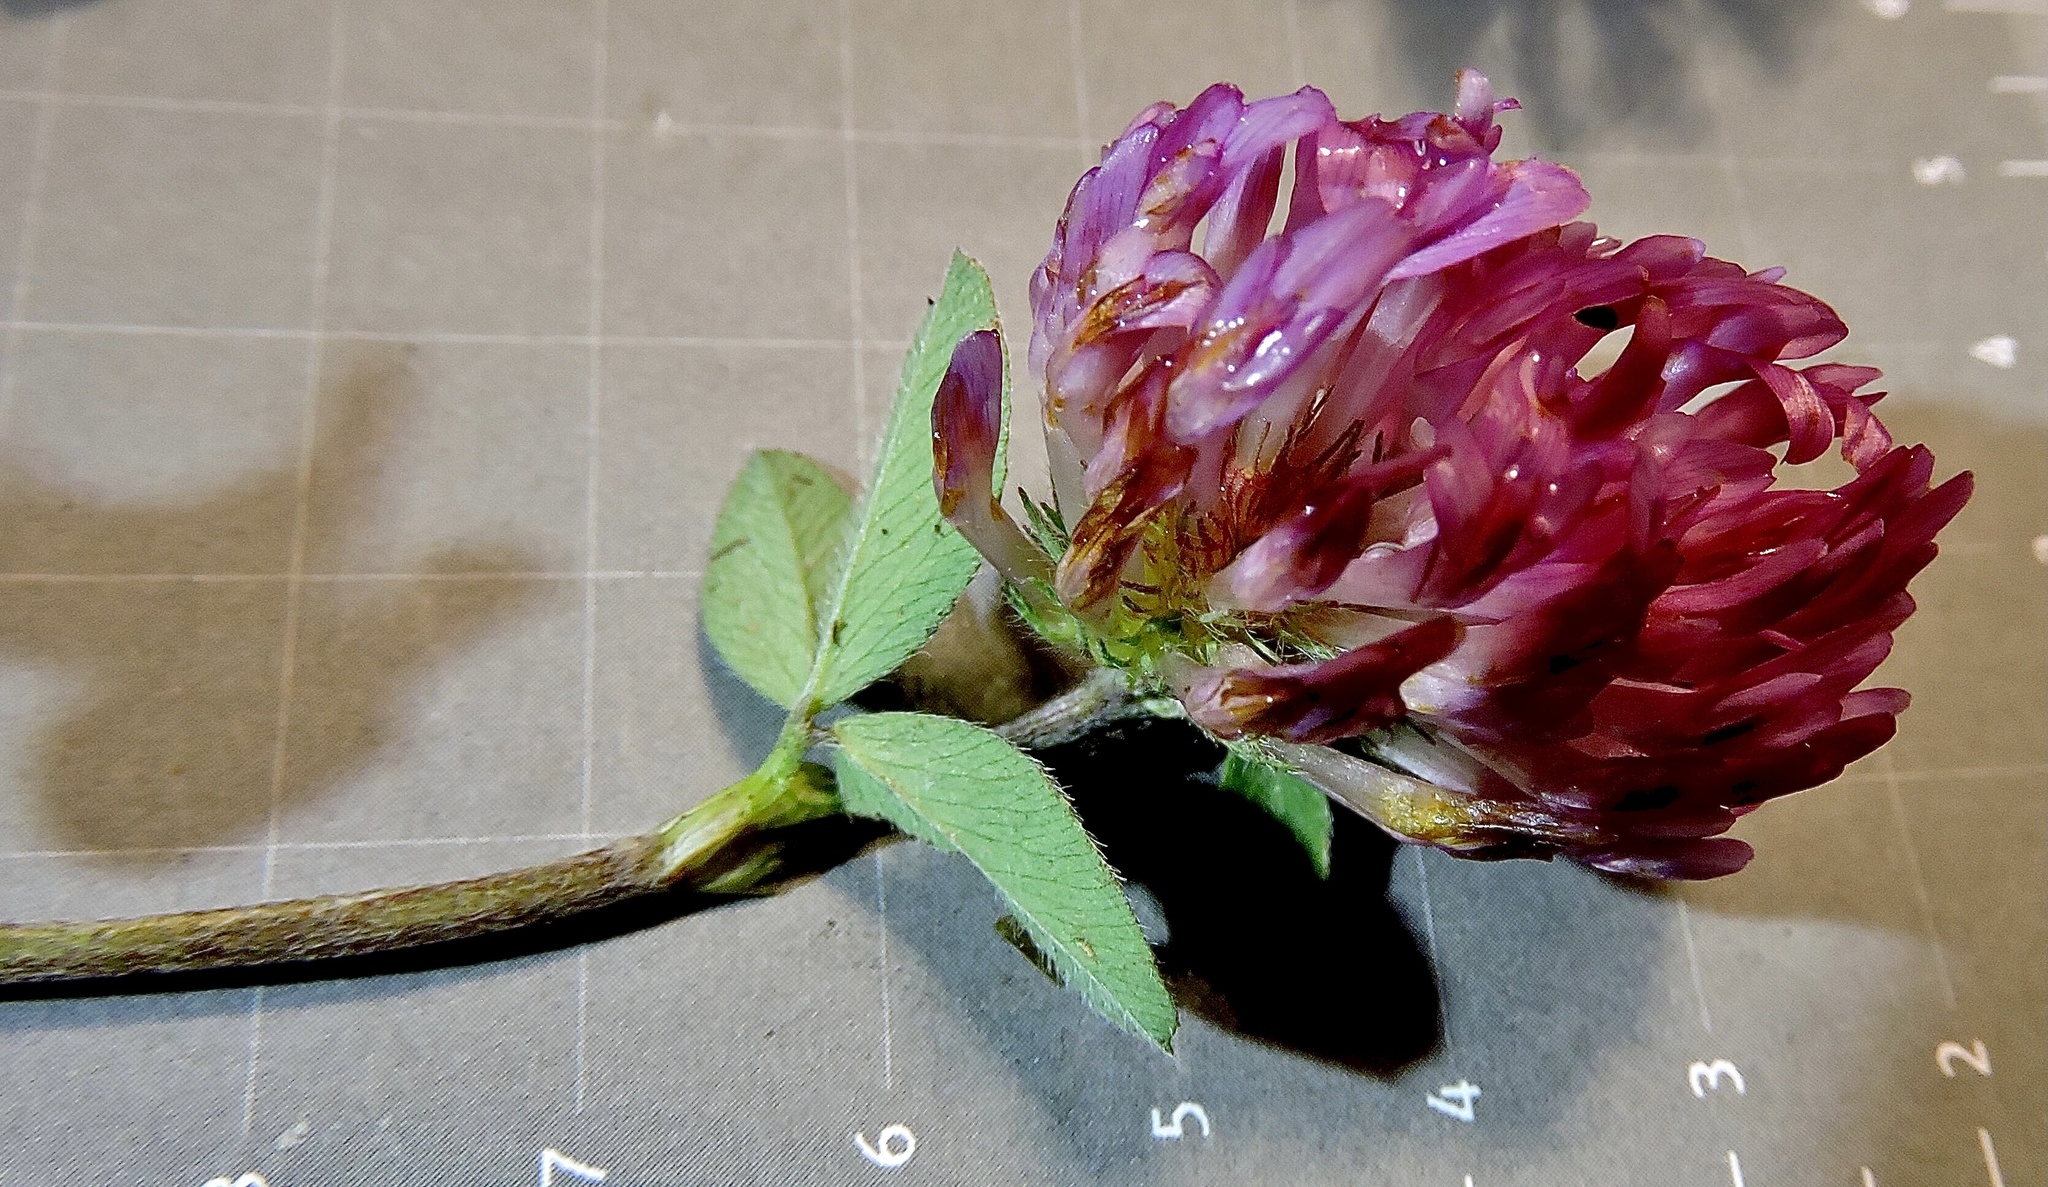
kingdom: Plantae
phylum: Tracheophyta
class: Magnoliopsida
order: Fabales
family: Fabaceae
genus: Trifolium
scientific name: Trifolium pratense
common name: Red clover
